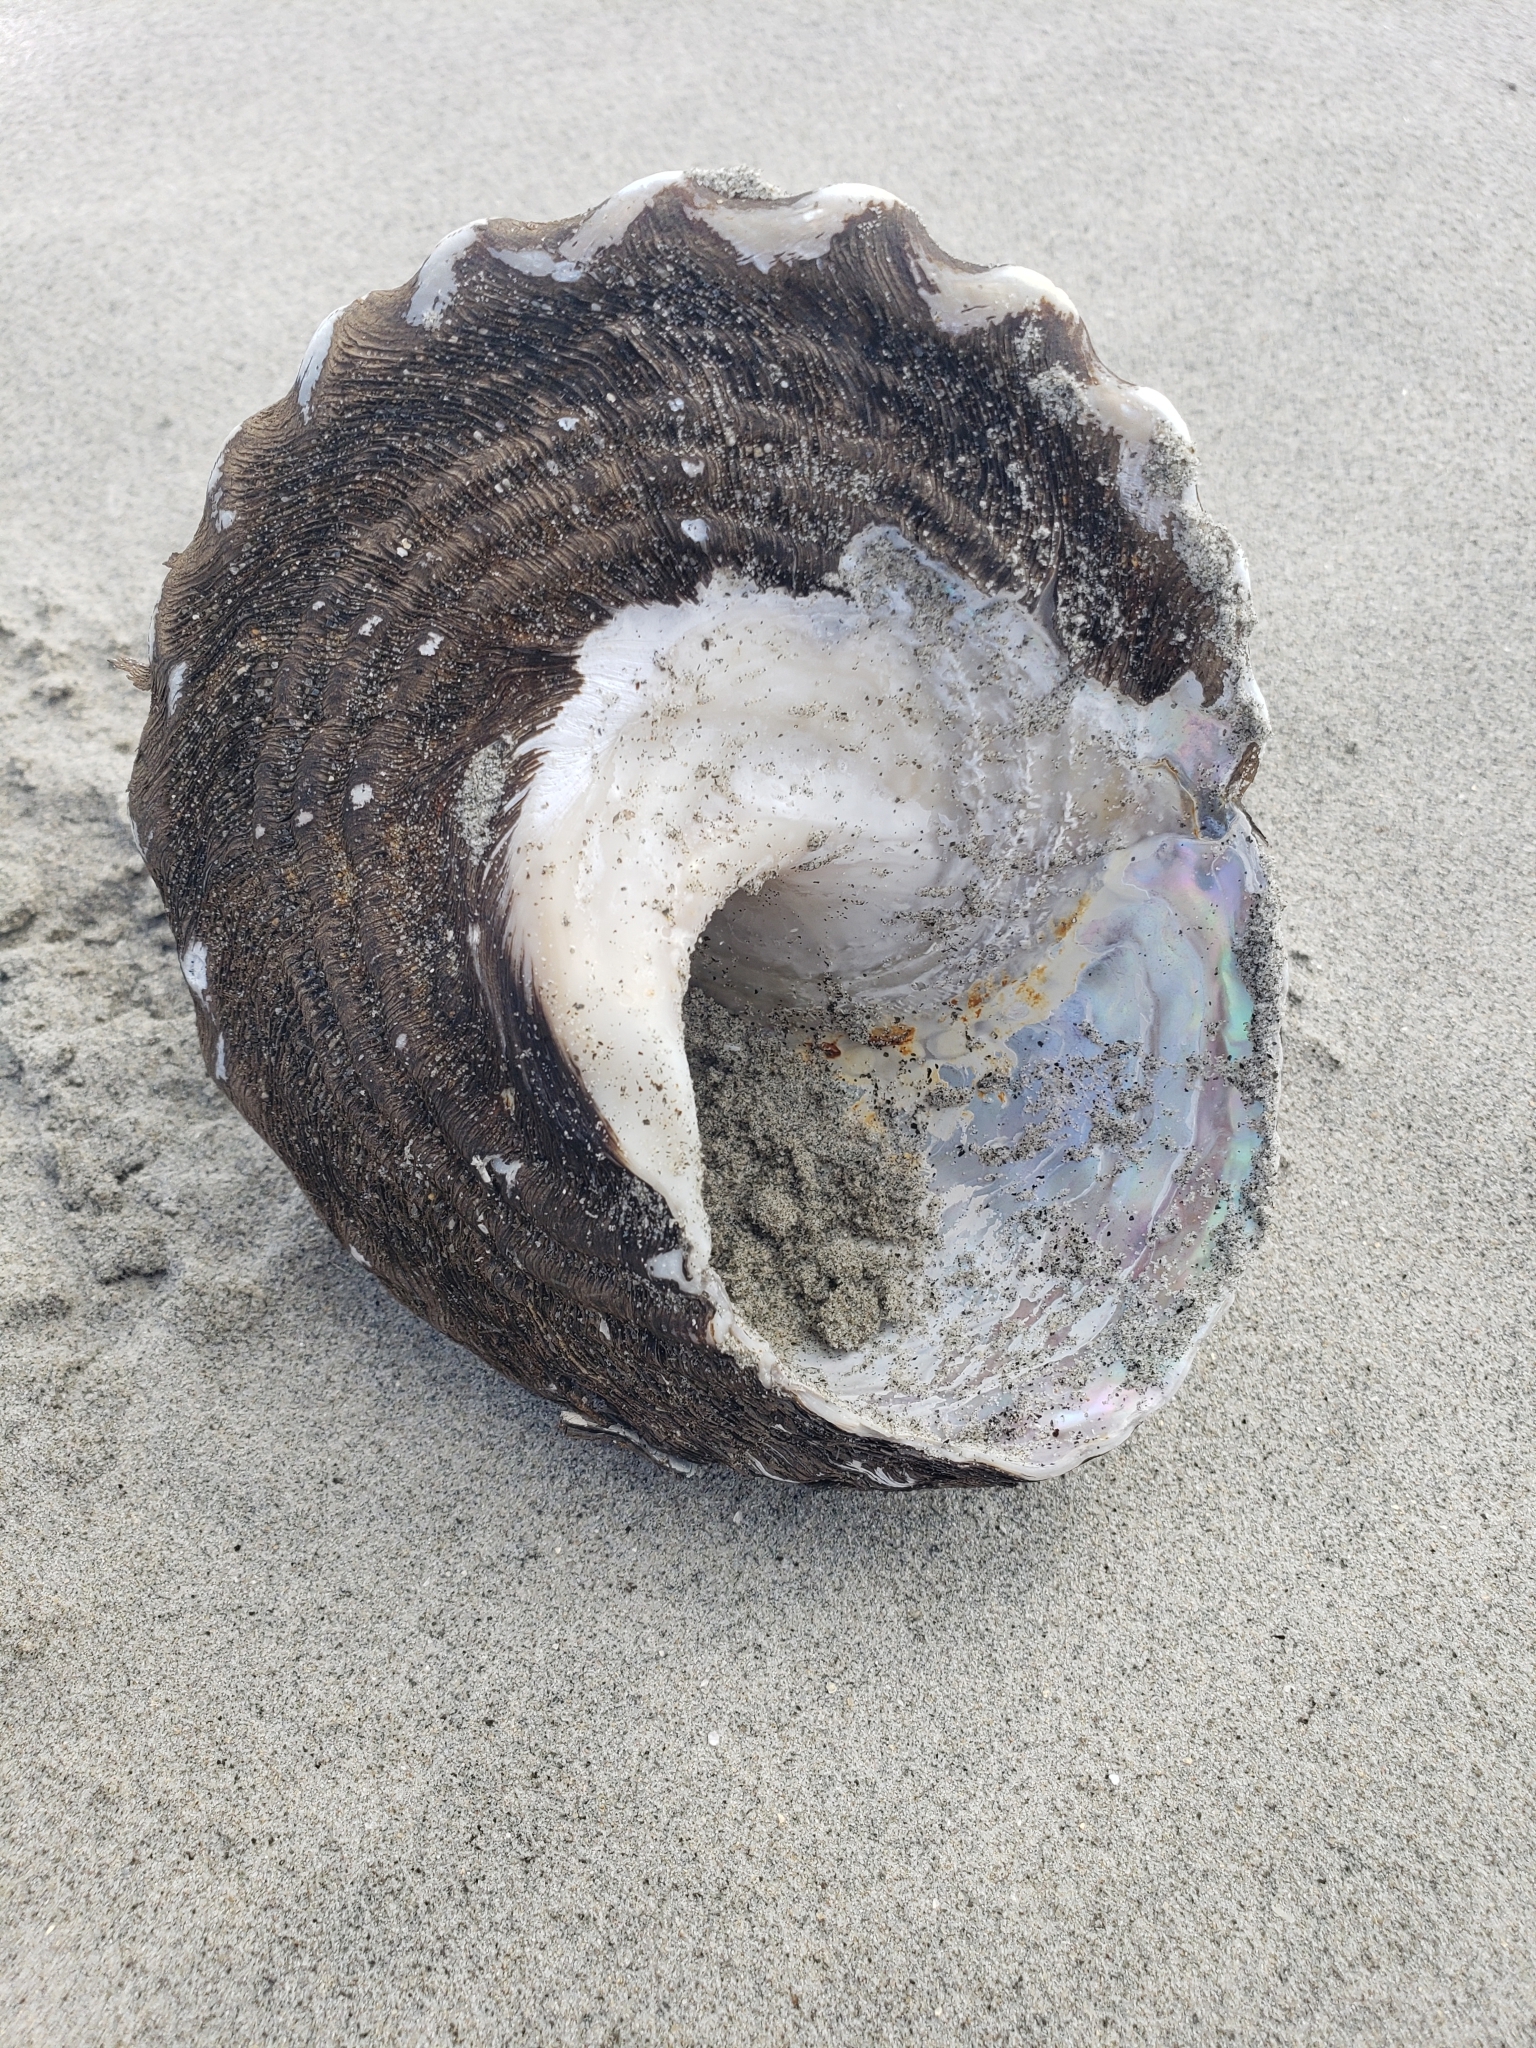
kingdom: Animalia
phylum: Mollusca
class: Gastropoda
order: Trochida
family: Turbinidae
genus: Megastraea
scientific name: Megastraea undosa
